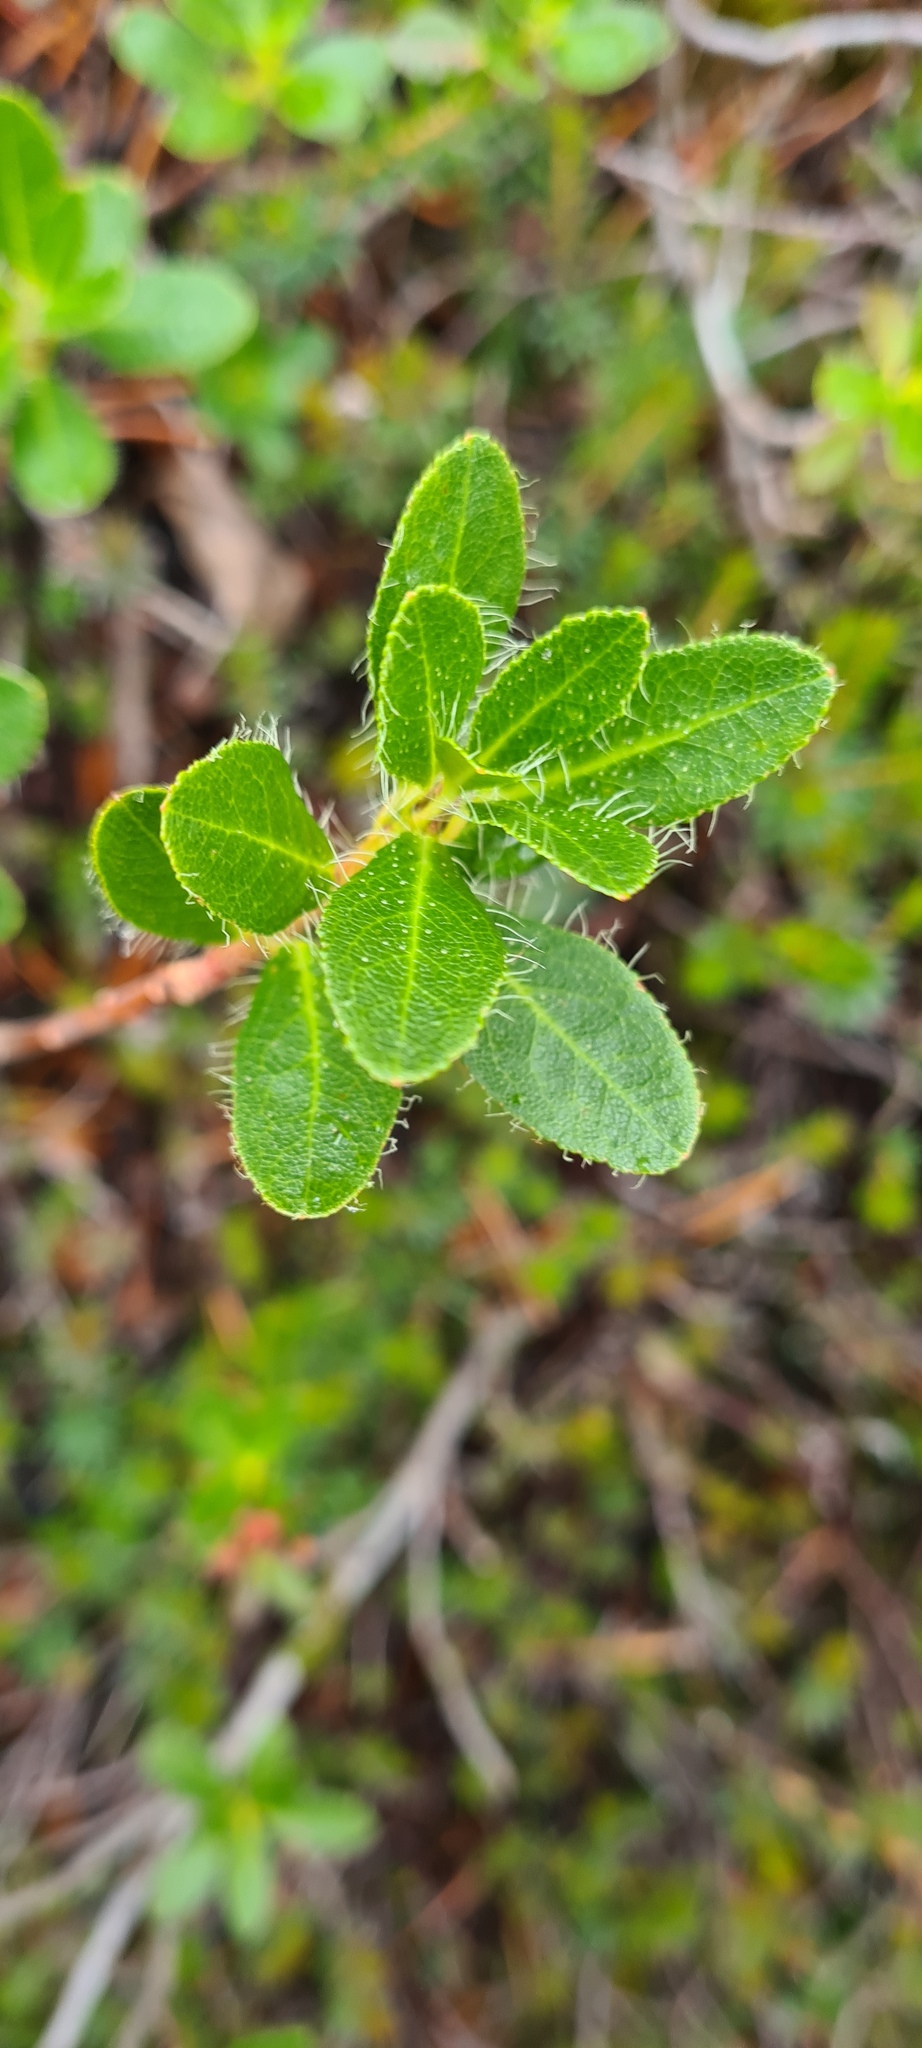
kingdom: Plantae
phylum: Tracheophyta
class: Magnoliopsida
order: Ericales
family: Ericaceae
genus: Rhododendron
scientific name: Rhododendron hirsutum
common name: Hairy alpenrose
